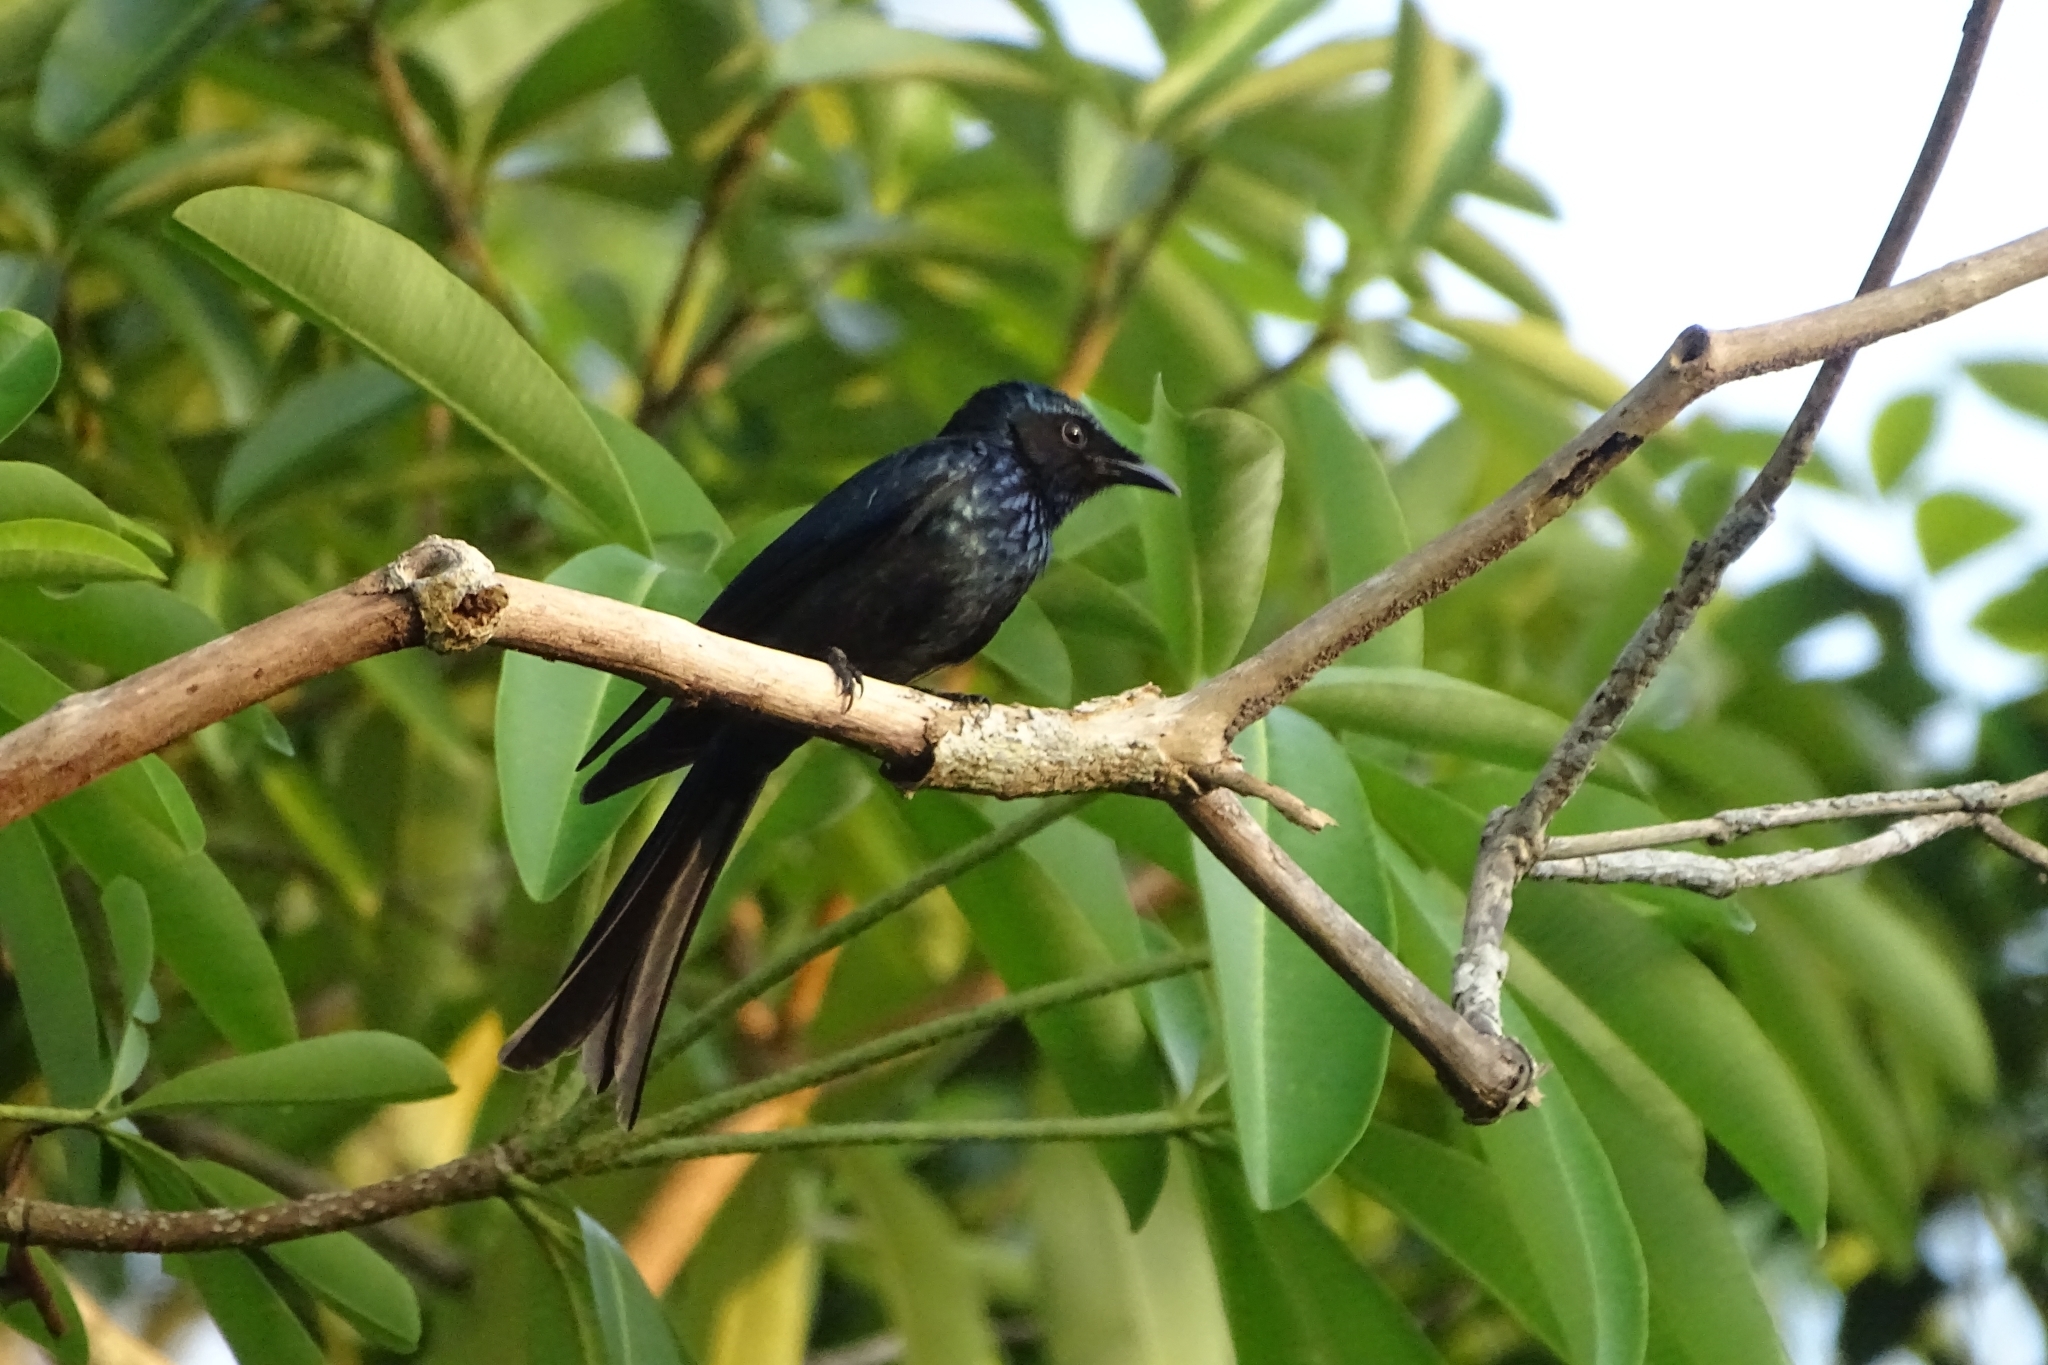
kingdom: Animalia
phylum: Chordata
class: Aves
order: Passeriformes
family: Dicruridae
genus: Dicrurus
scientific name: Dicrurus aeneus
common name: Bronzed drongo
